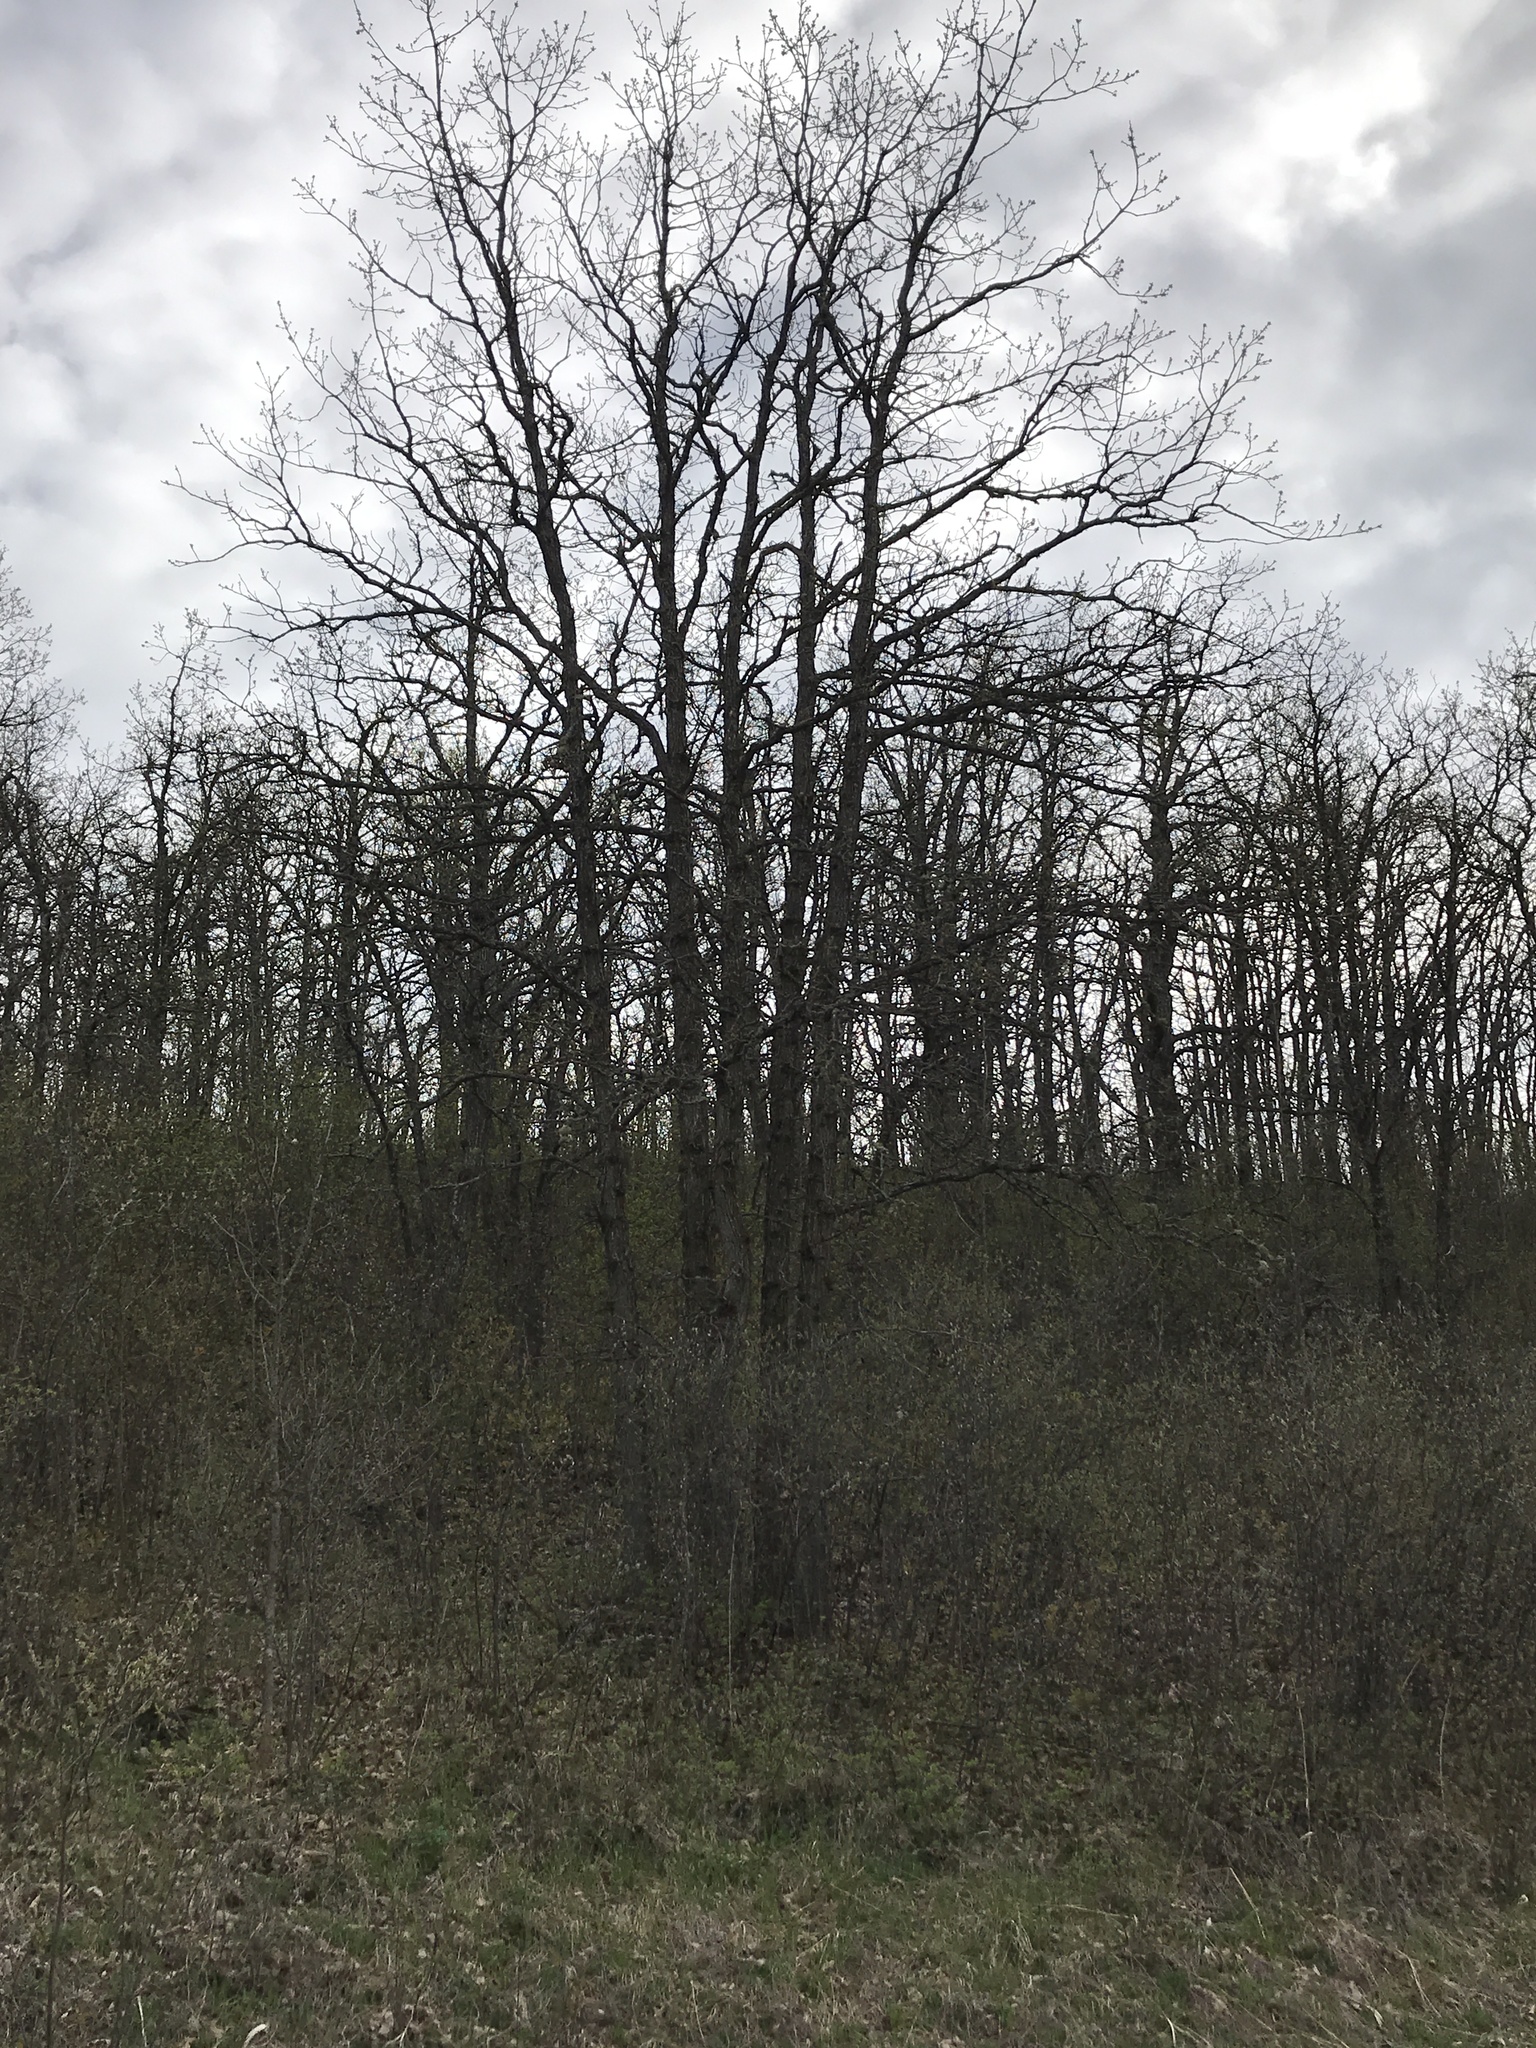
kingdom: Plantae
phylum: Tracheophyta
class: Magnoliopsida
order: Fagales
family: Fagaceae
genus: Quercus
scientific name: Quercus macrocarpa
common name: Bur oak
